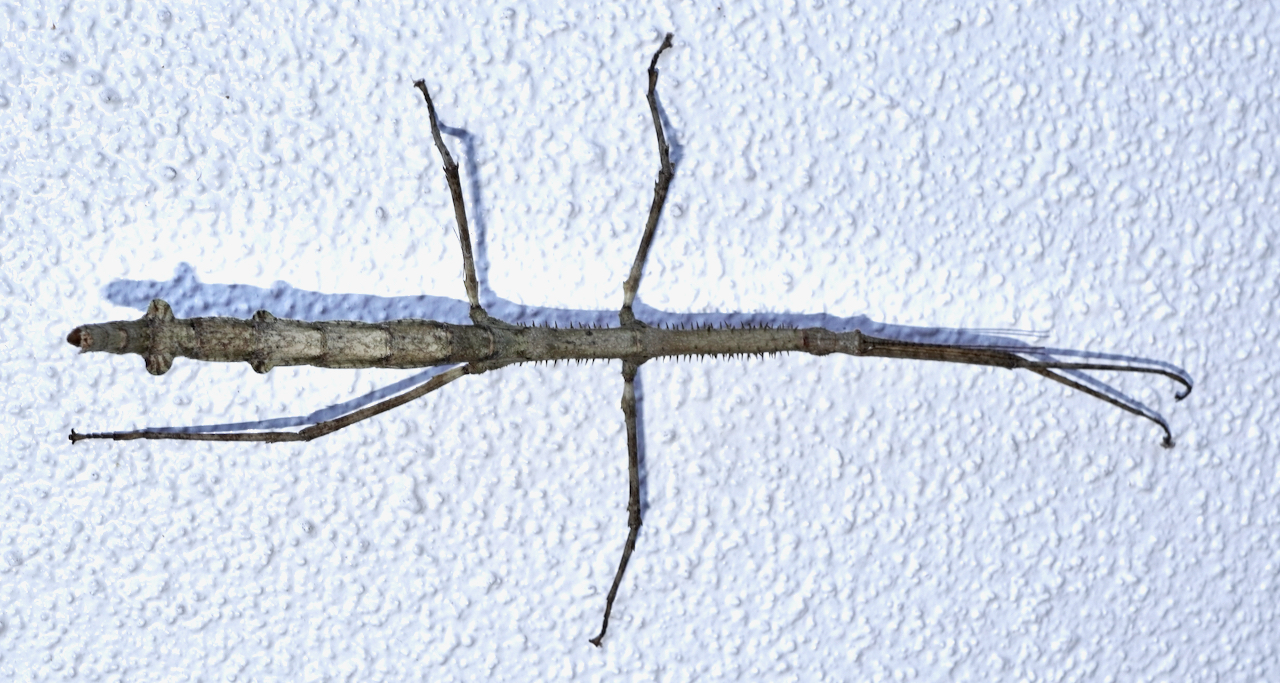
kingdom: Animalia
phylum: Arthropoda
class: Insecta
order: Phasmida
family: Phasmatidae
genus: Argosarchus
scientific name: Argosarchus horridus
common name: Bristly stick insect
